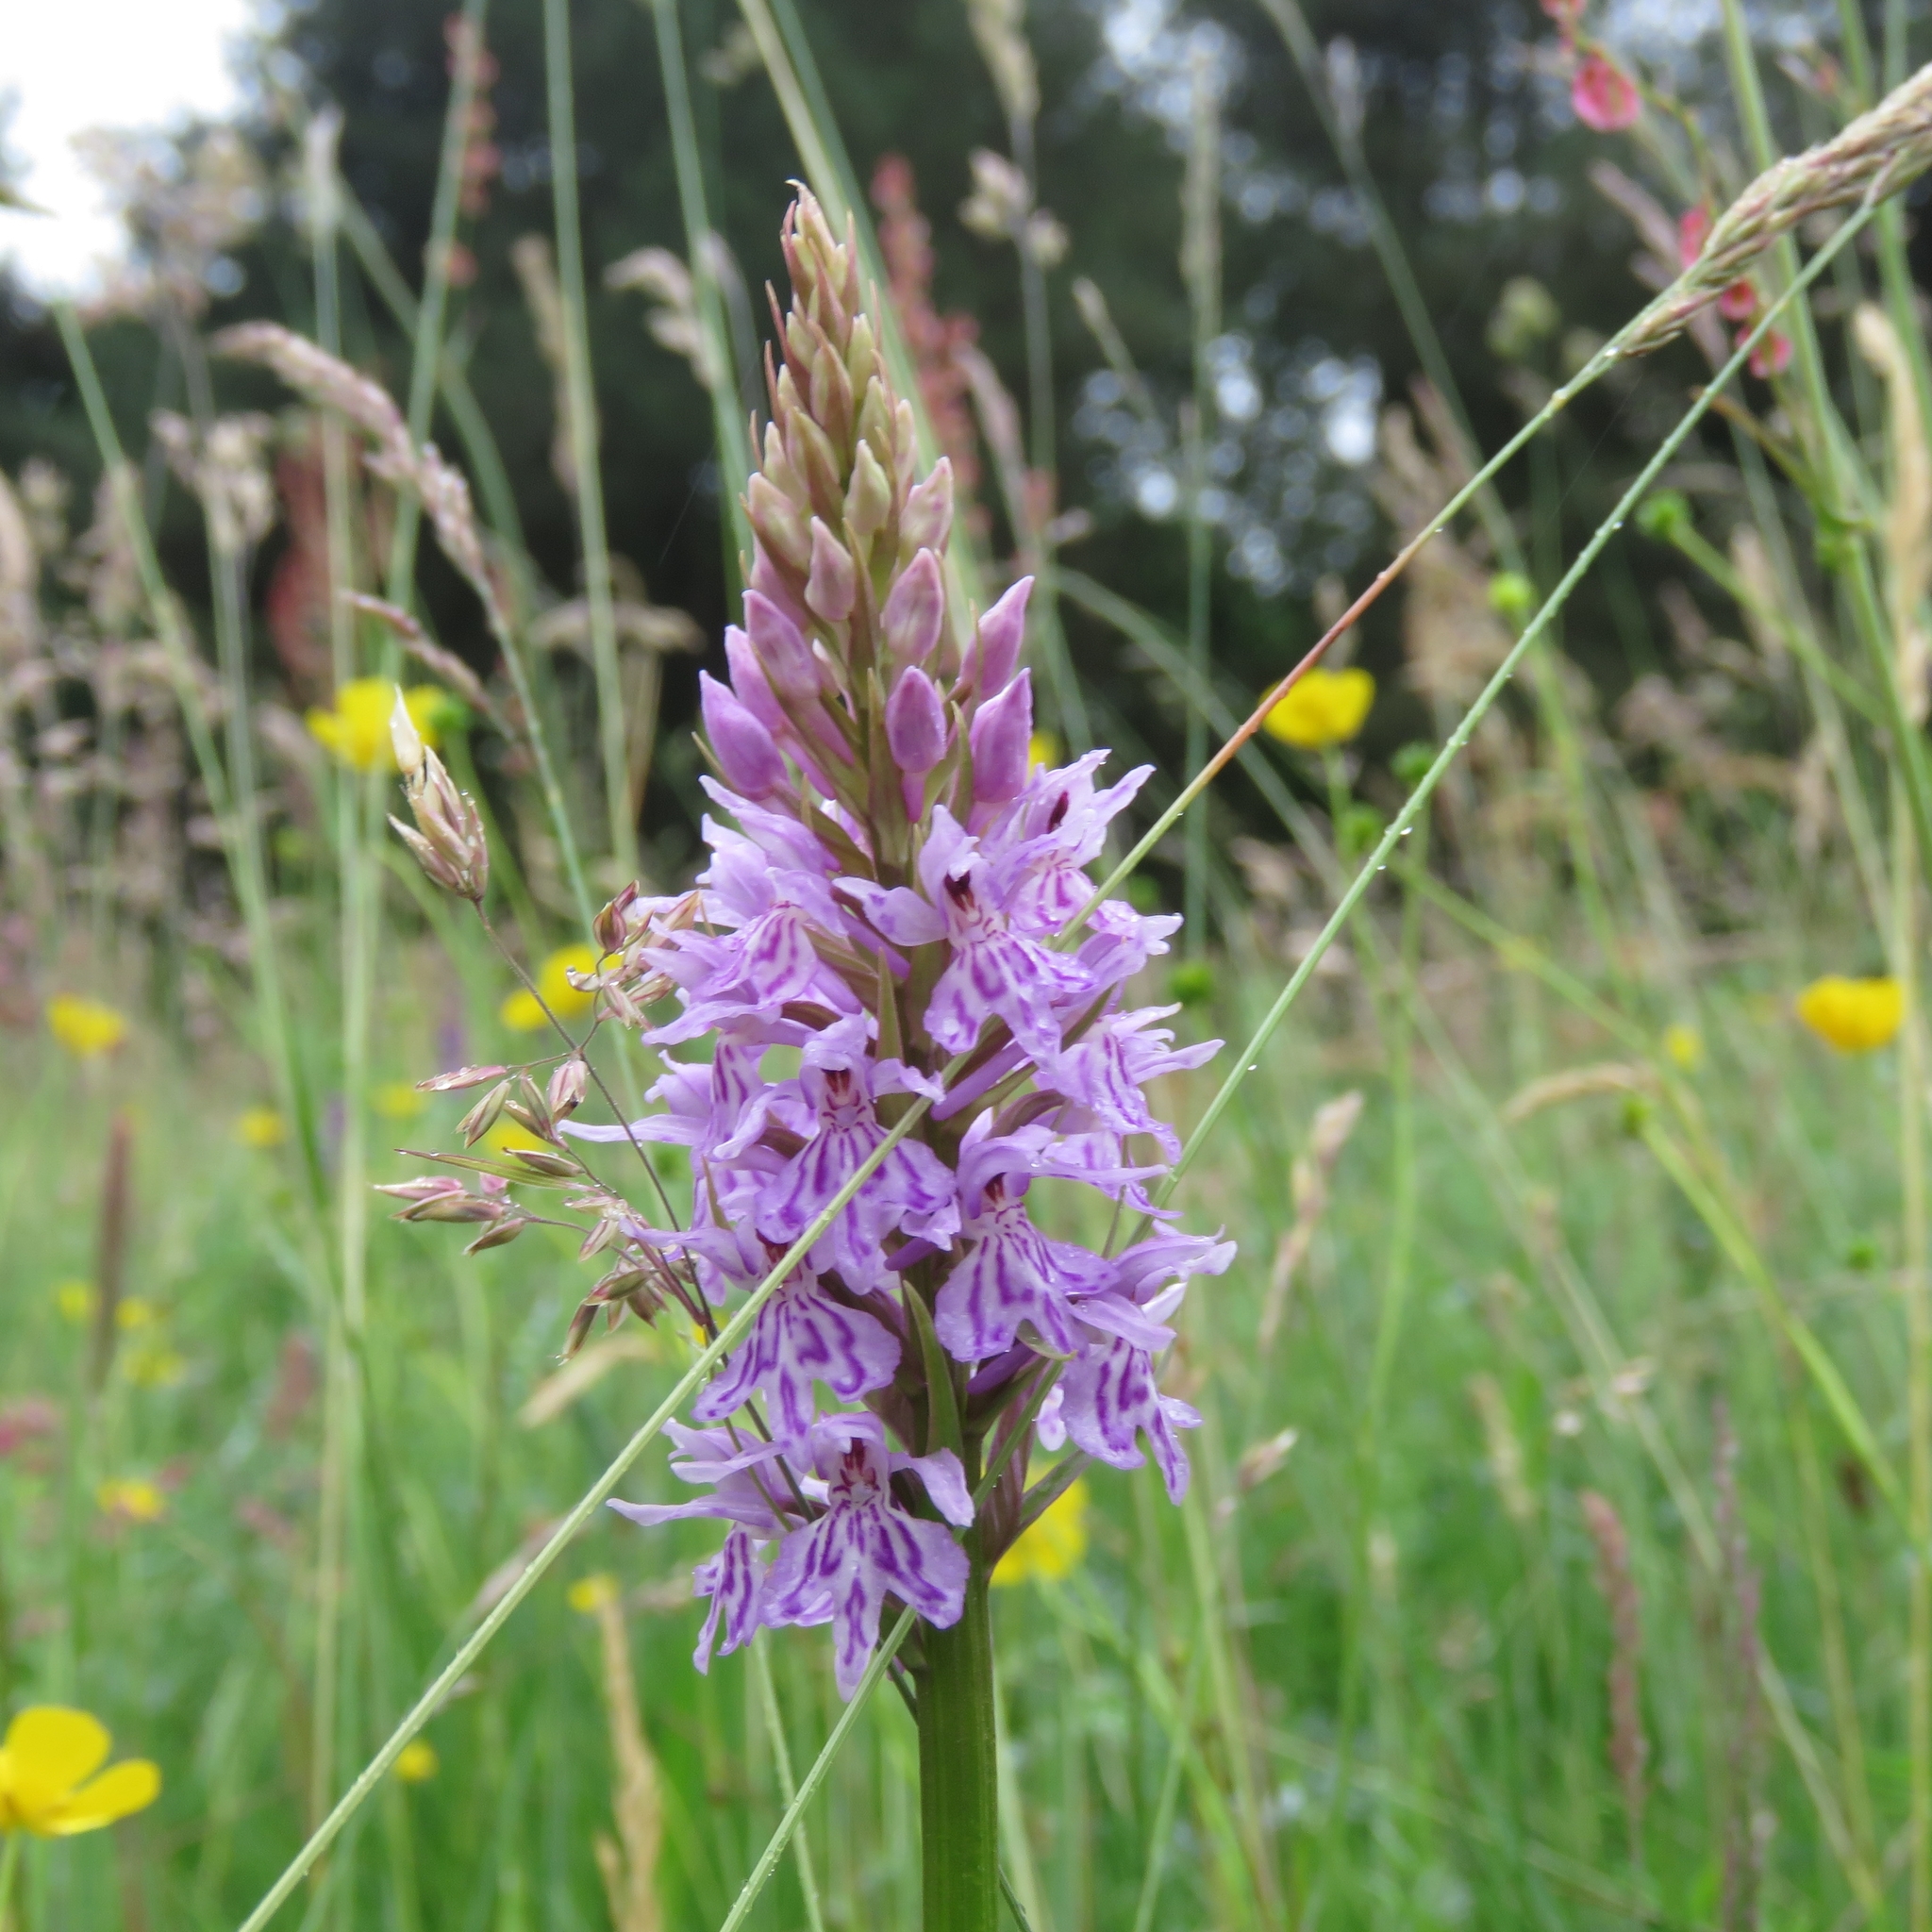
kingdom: Plantae
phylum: Tracheophyta
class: Liliopsida
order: Asparagales
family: Orchidaceae
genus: Dactylorhiza
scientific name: Dactylorhiza maculata
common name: Heath spotted-orchid
